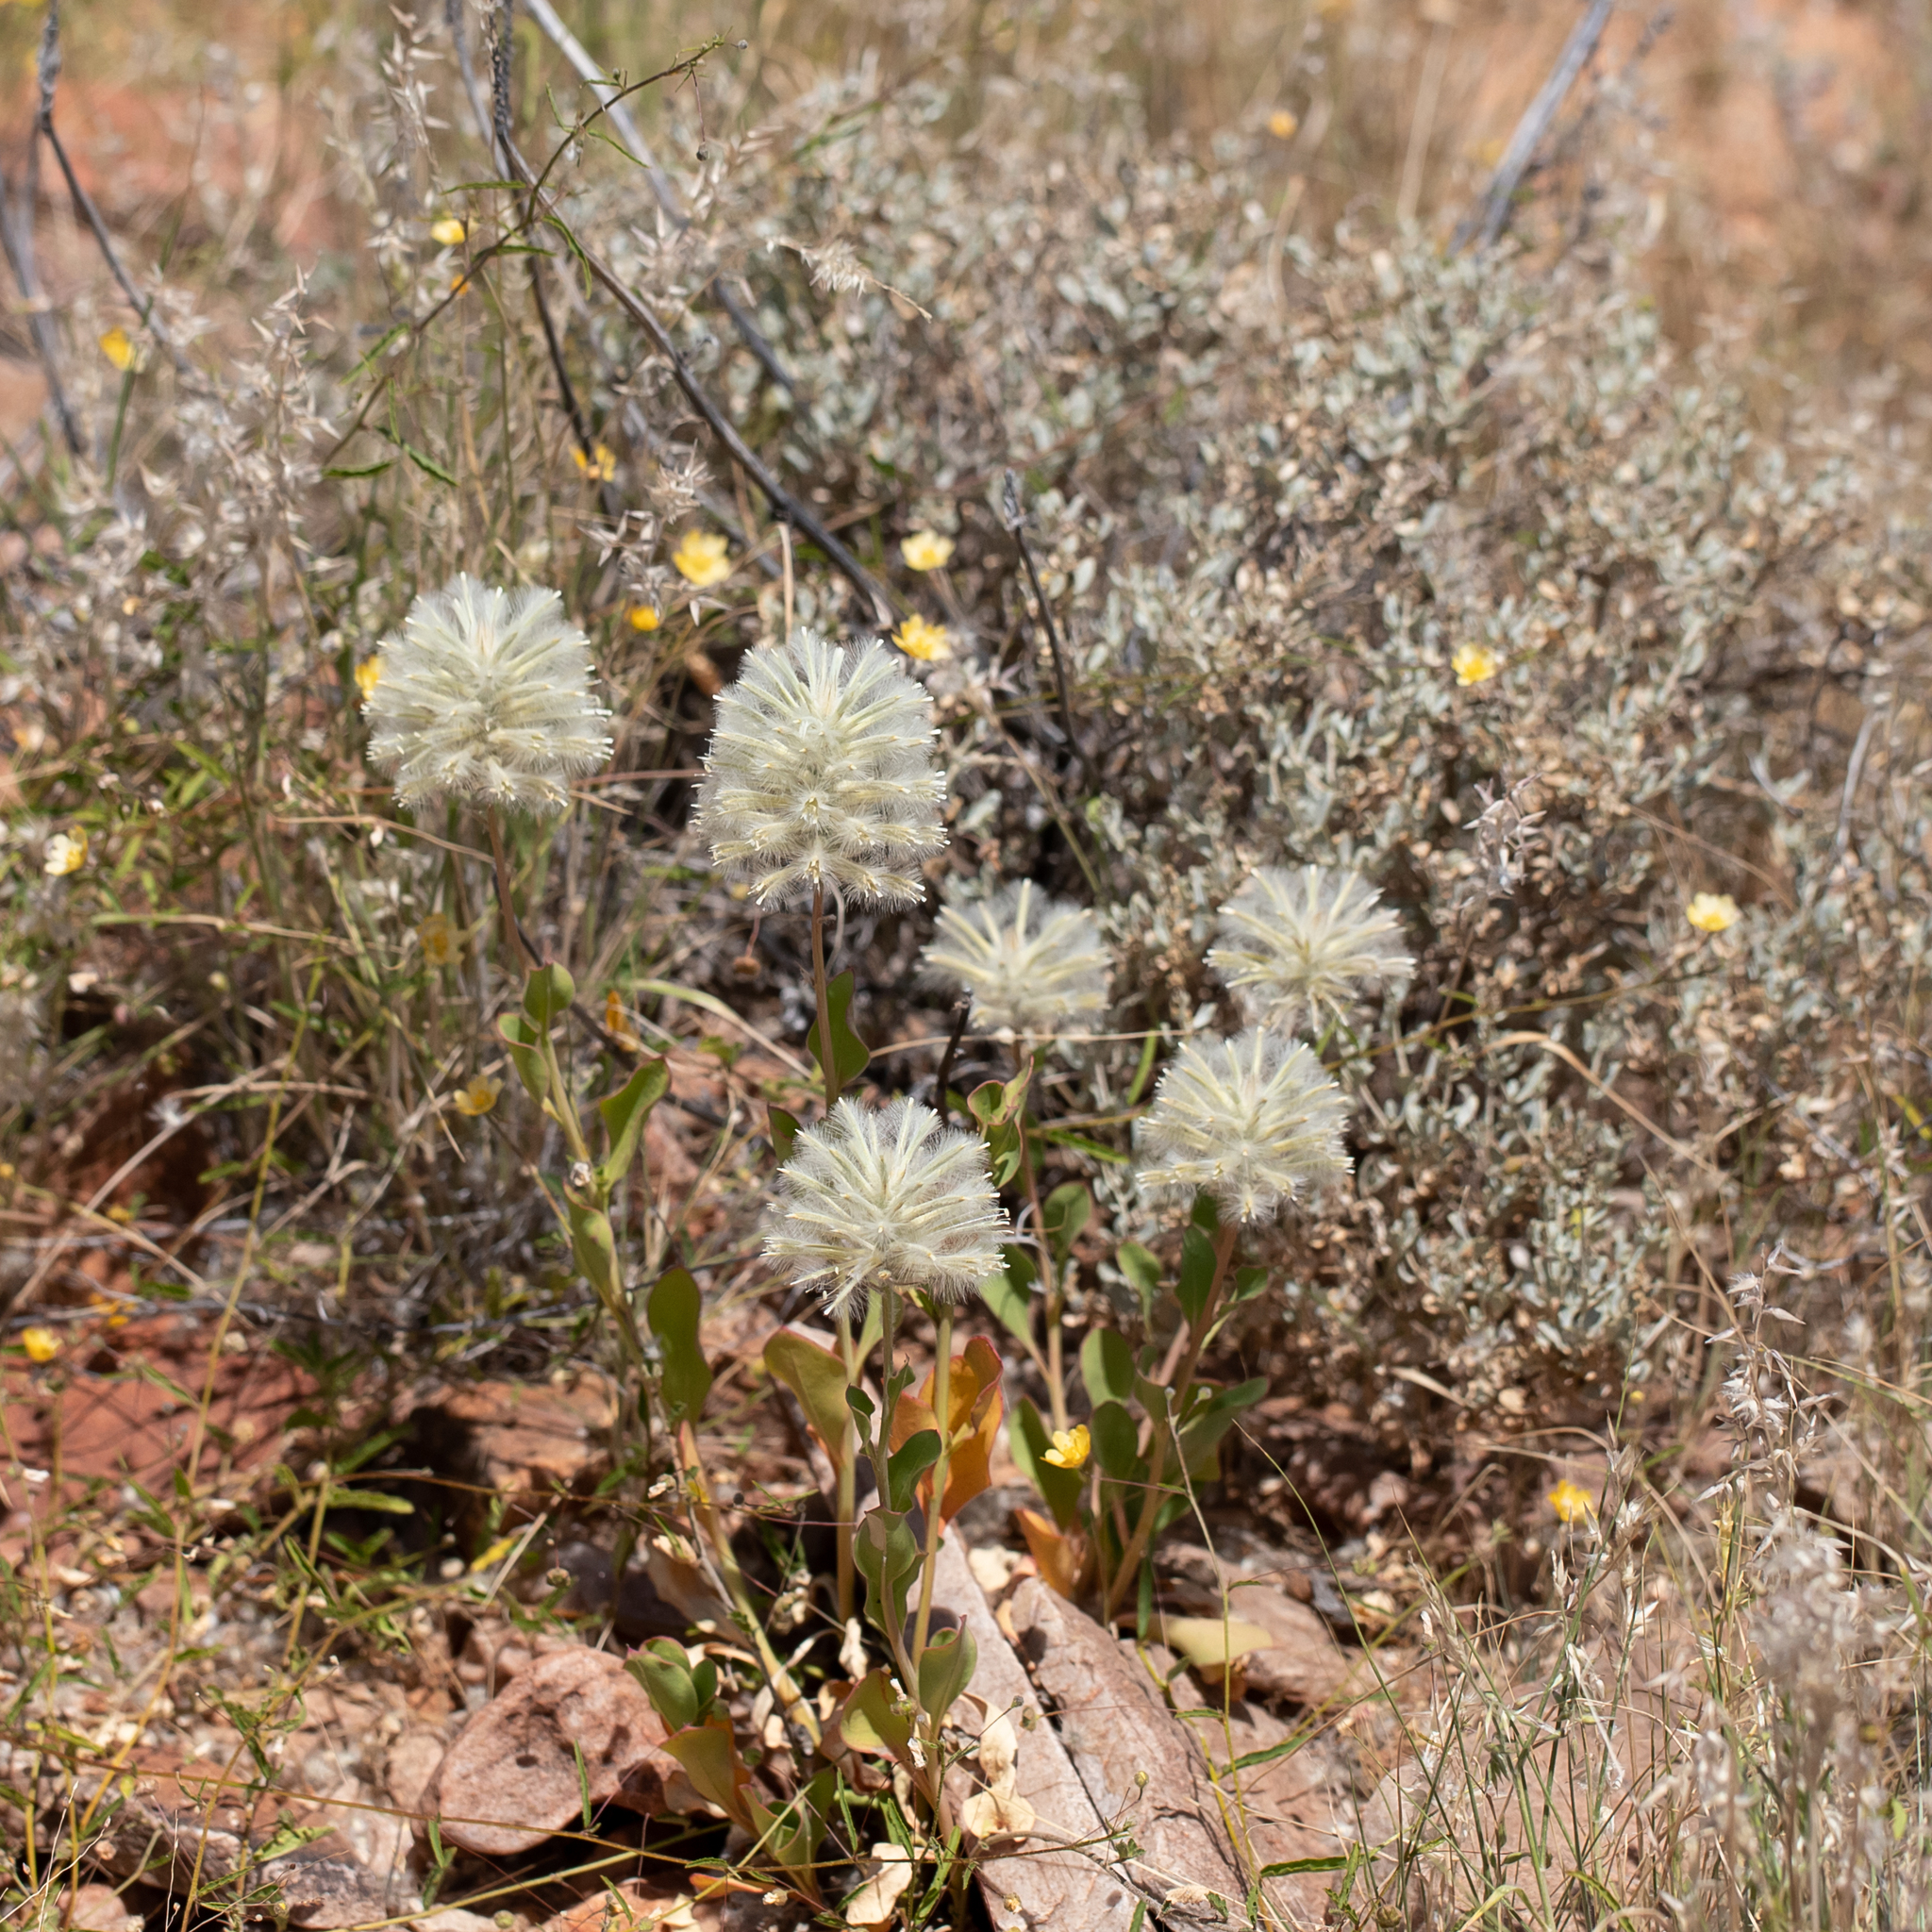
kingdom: Plantae
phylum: Tracheophyta
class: Magnoliopsida
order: Caryophyllales
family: Amaranthaceae
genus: Ptilotus
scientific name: Ptilotus nobilis
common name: Regal-foxtail
